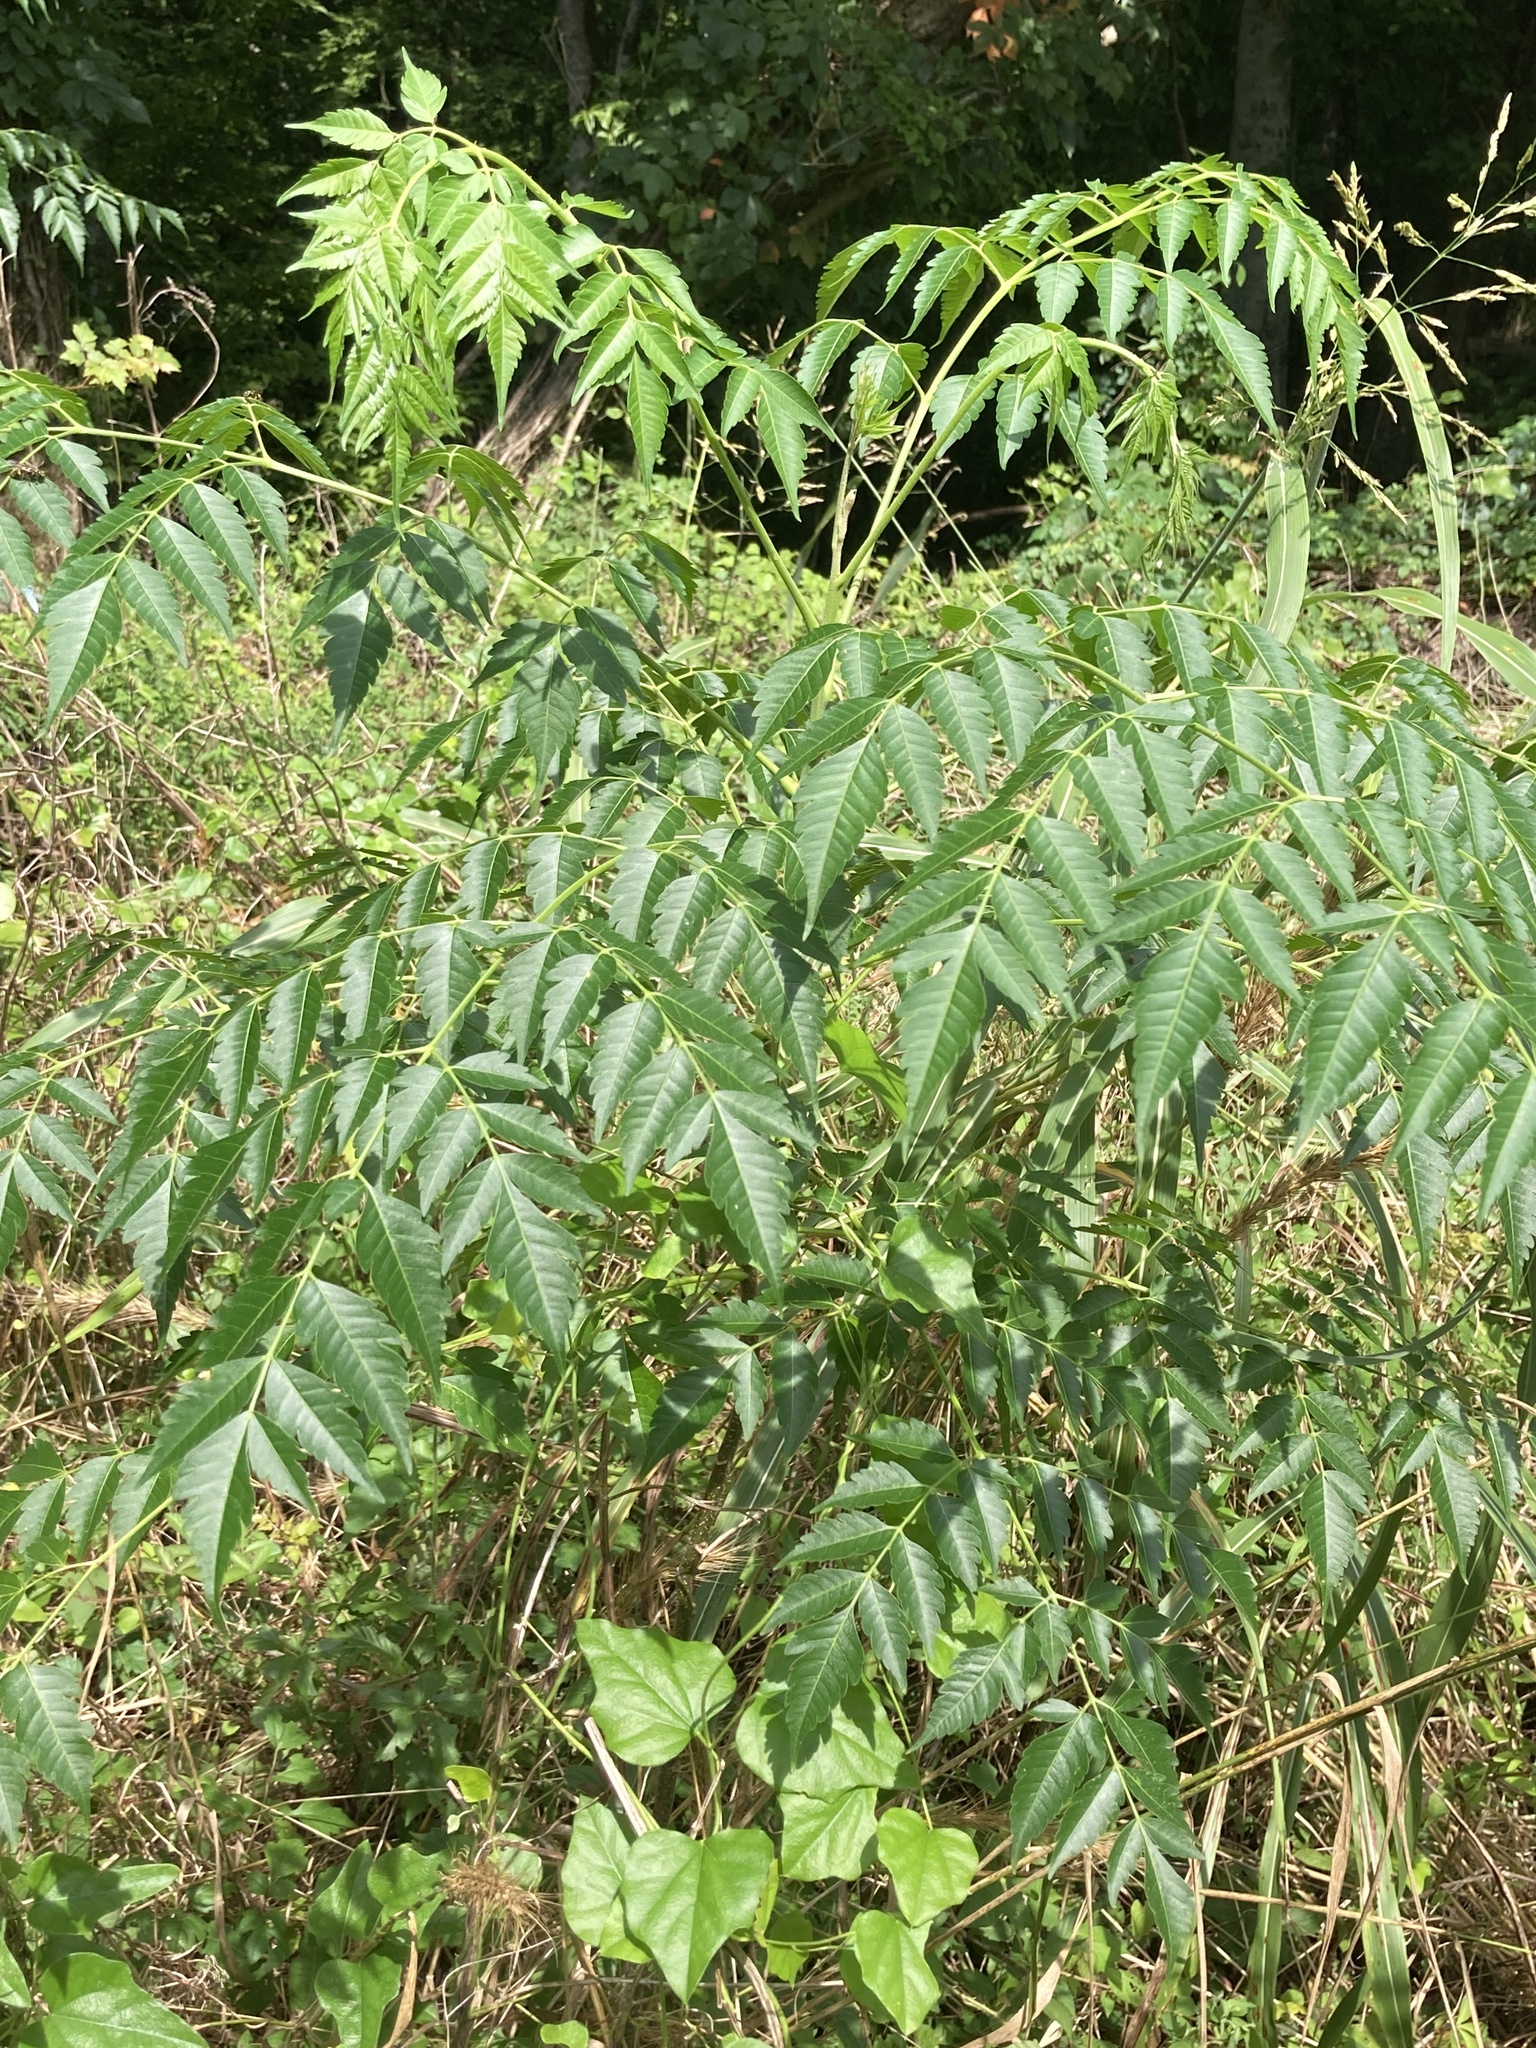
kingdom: Plantae
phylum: Tracheophyta
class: Magnoliopsida
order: Sapindales
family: Meliaceae
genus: Melia
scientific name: Melia azedarach
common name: Chinaberrytree
